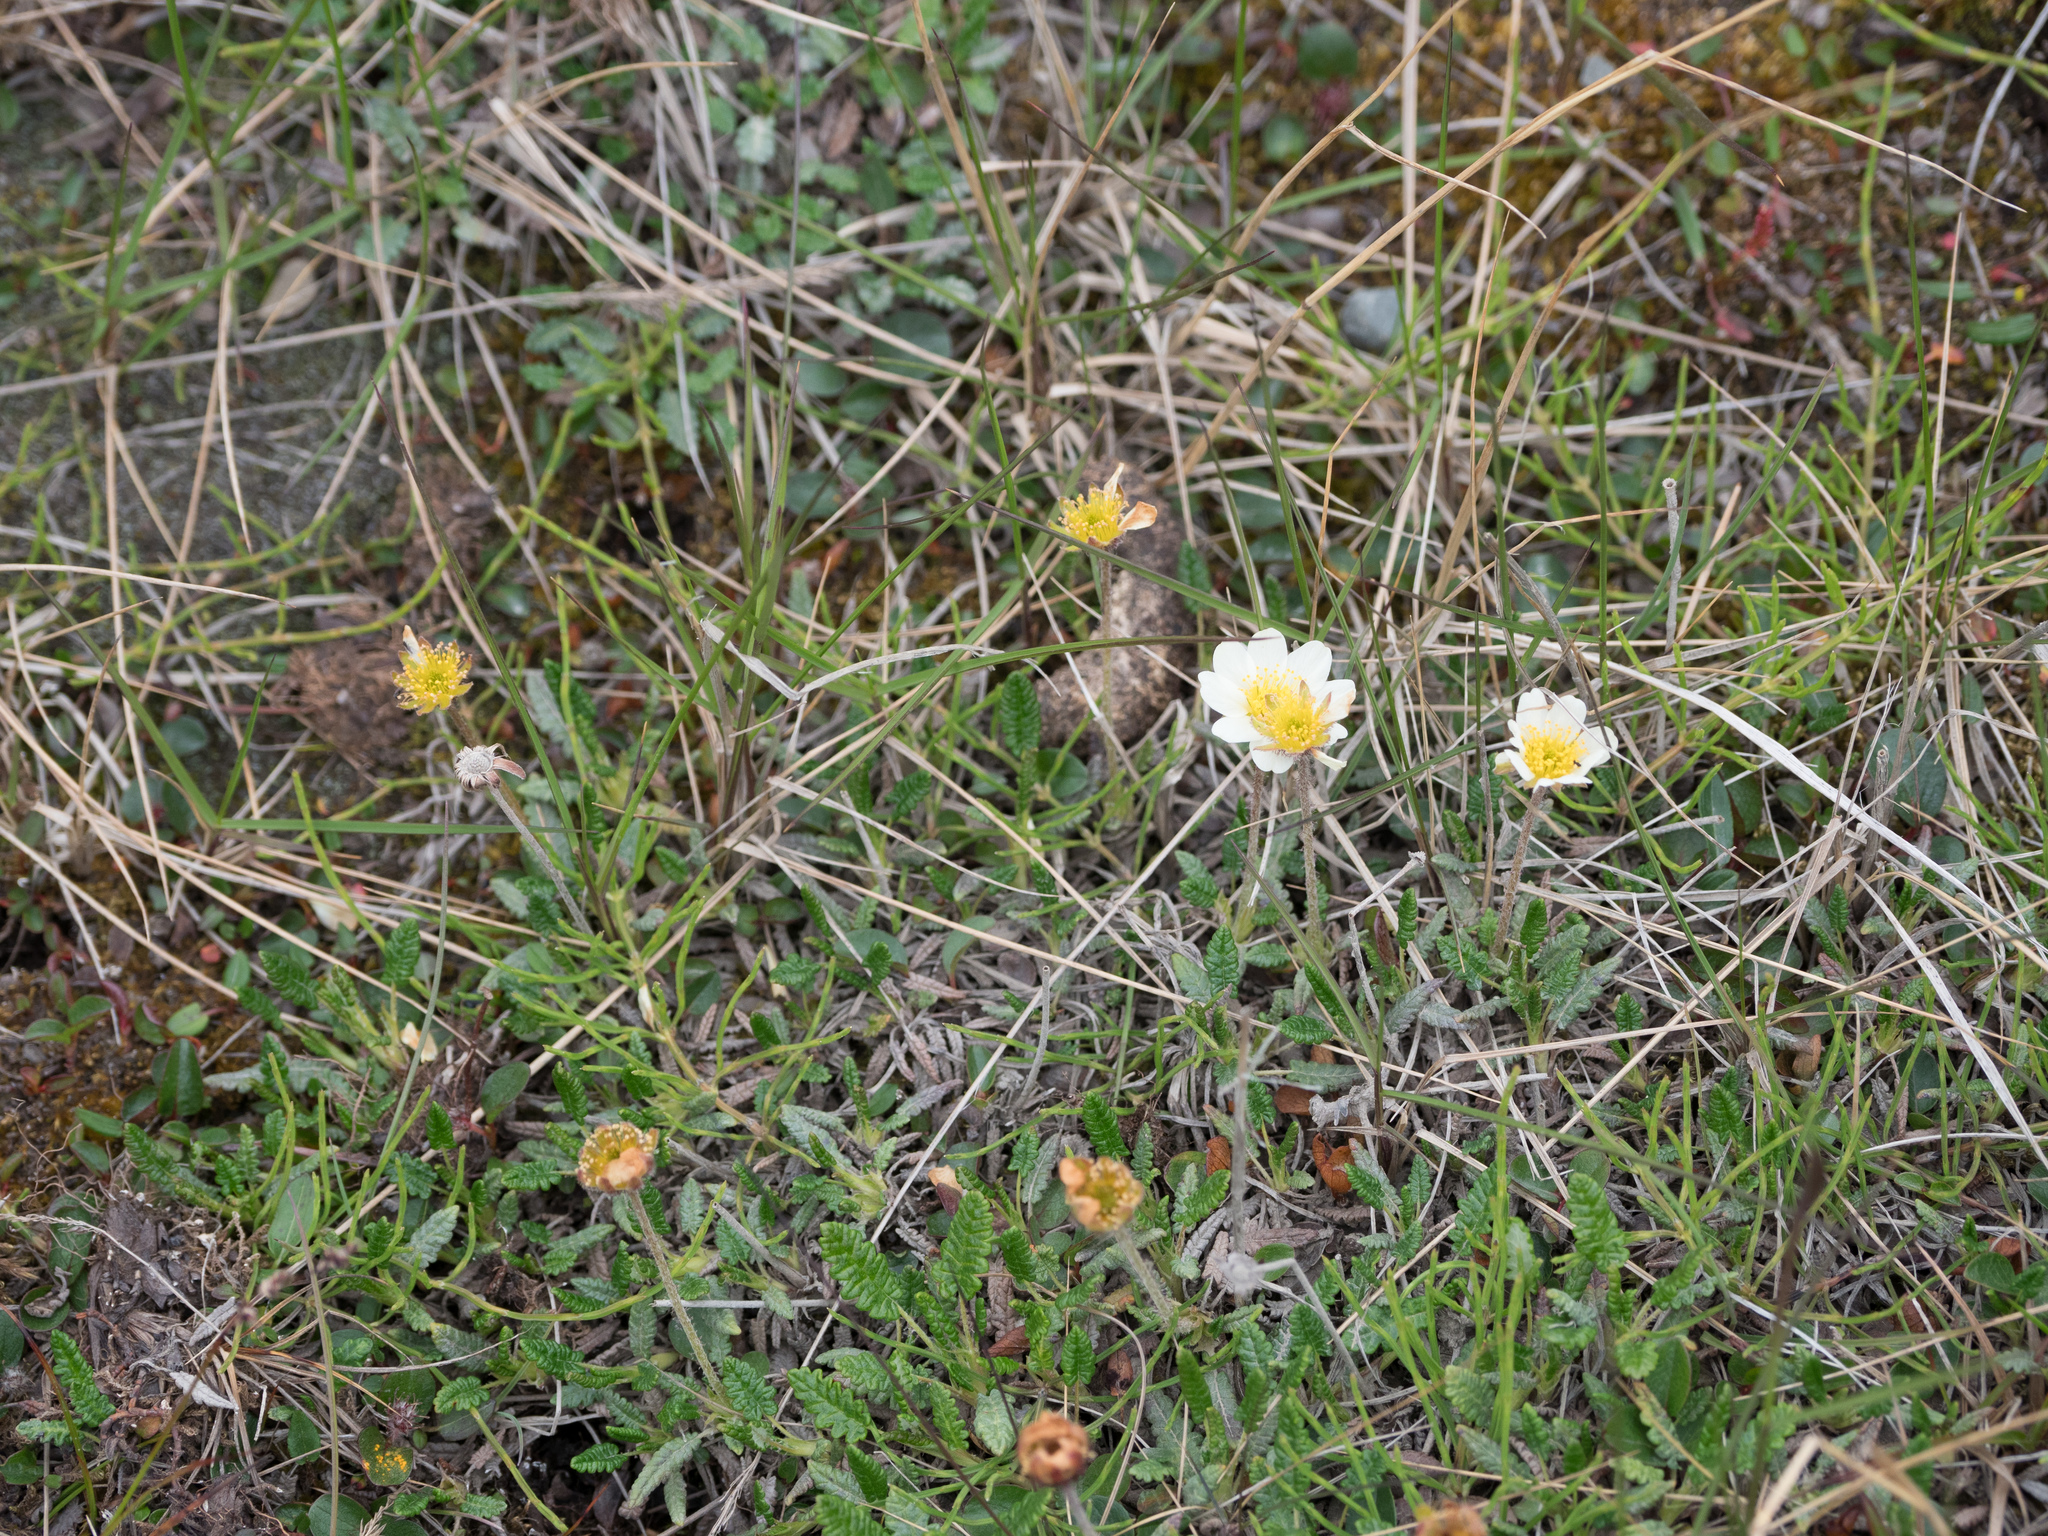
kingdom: Plantae
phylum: Tracheophyta
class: Magnoliopsida
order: Rosales
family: Rosaceae
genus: Dryas
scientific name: Dryas octopetala
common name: Eight-petal mountain-avens
